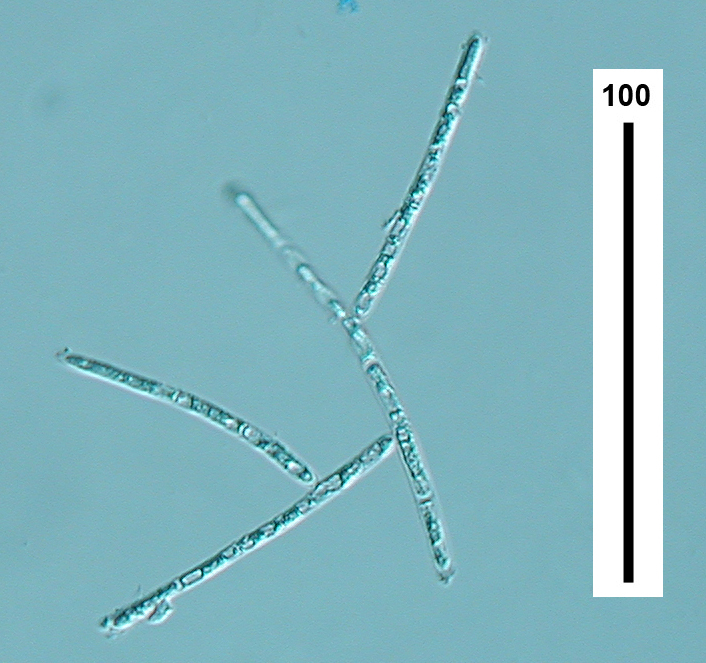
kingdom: Fungi
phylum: Ascomycota
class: Leotiomycetes
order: Helotiales
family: Discinellaceae
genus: Varicosporium
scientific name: Varicosporium elodeae
